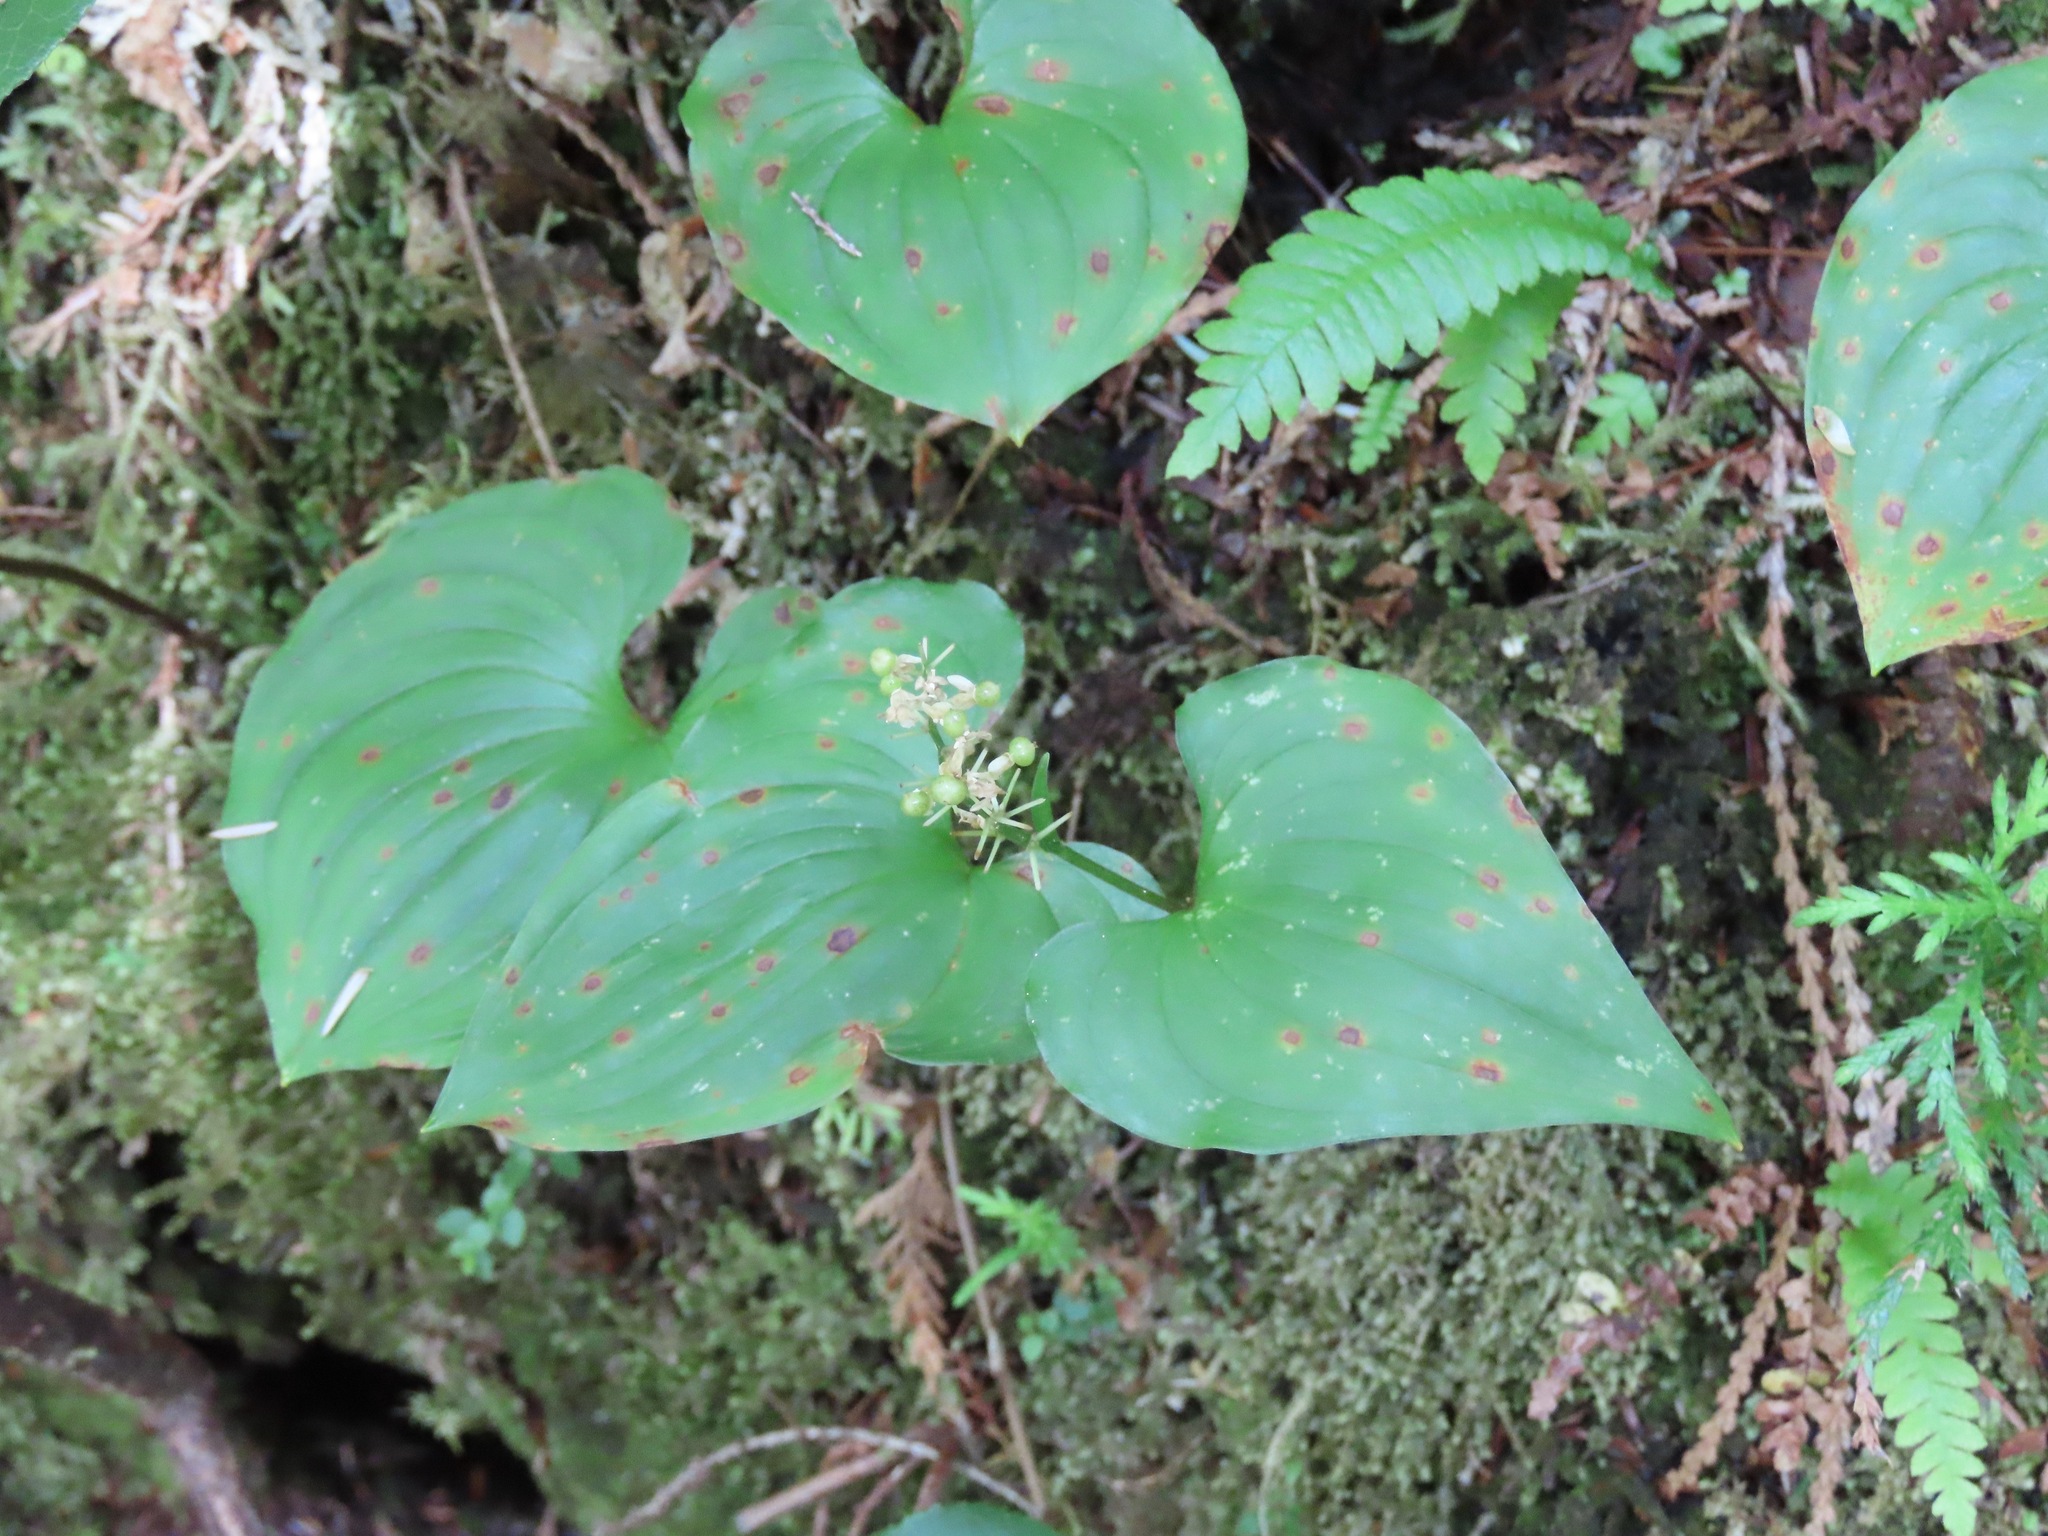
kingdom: Plantae
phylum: Tracheophyta
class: Liliopsida
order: Asparagales
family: Asparagaceae
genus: Maianthemum
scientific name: Maianthemum dilatatum
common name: False lily-of-the-valley
